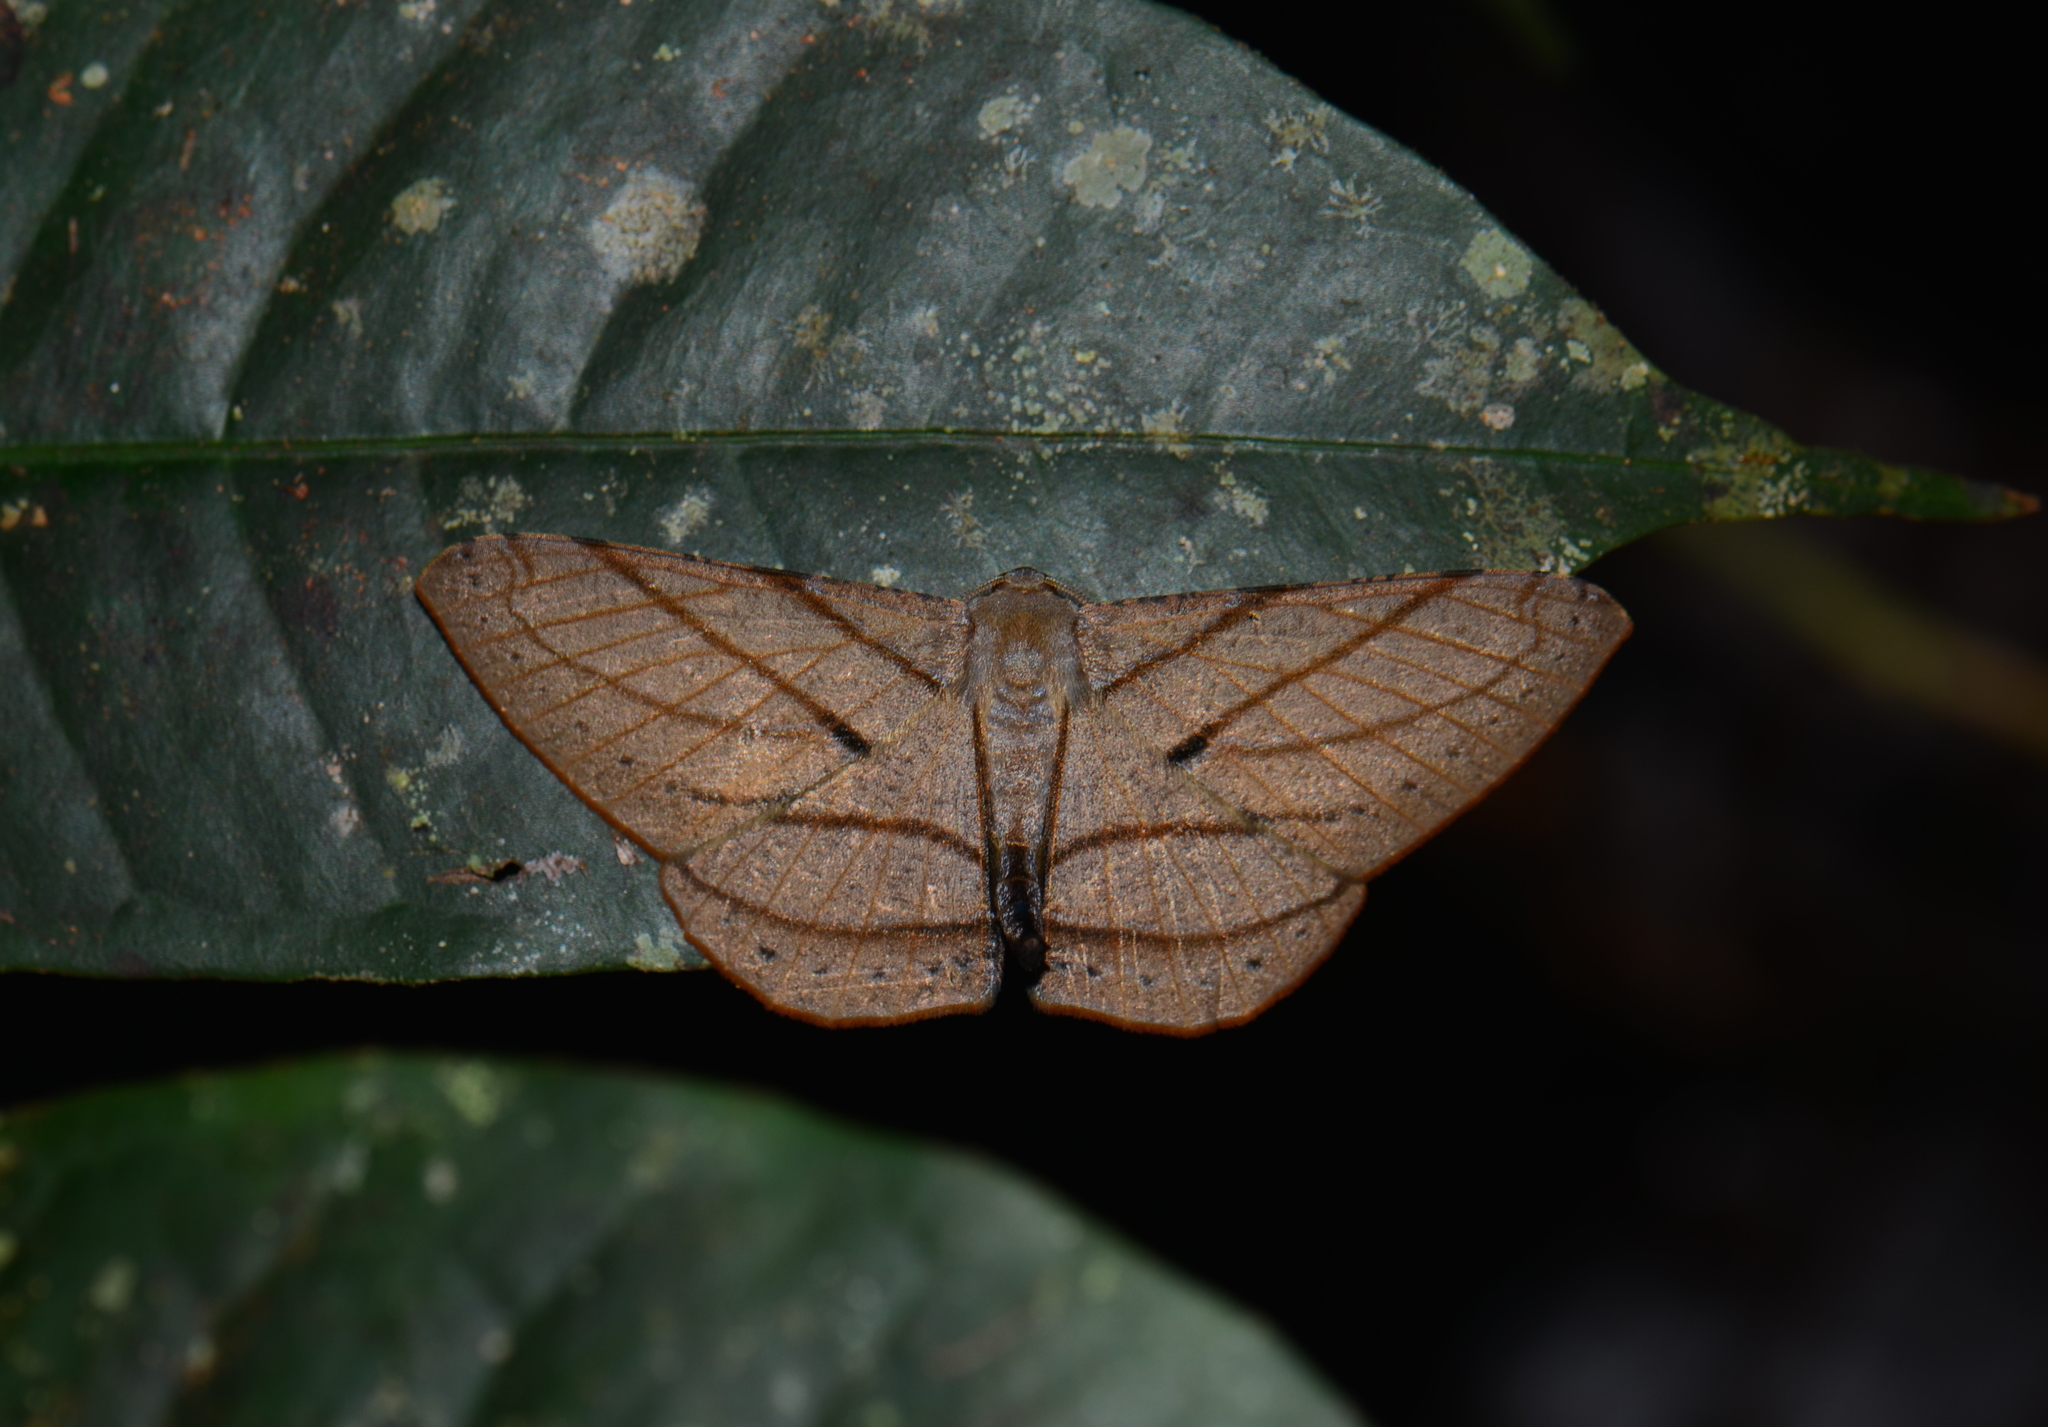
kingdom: Animalia
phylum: Arthropoda
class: Insecta
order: Lepidoptera
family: Geometridae
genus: Dalima
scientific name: Dalima patularia
